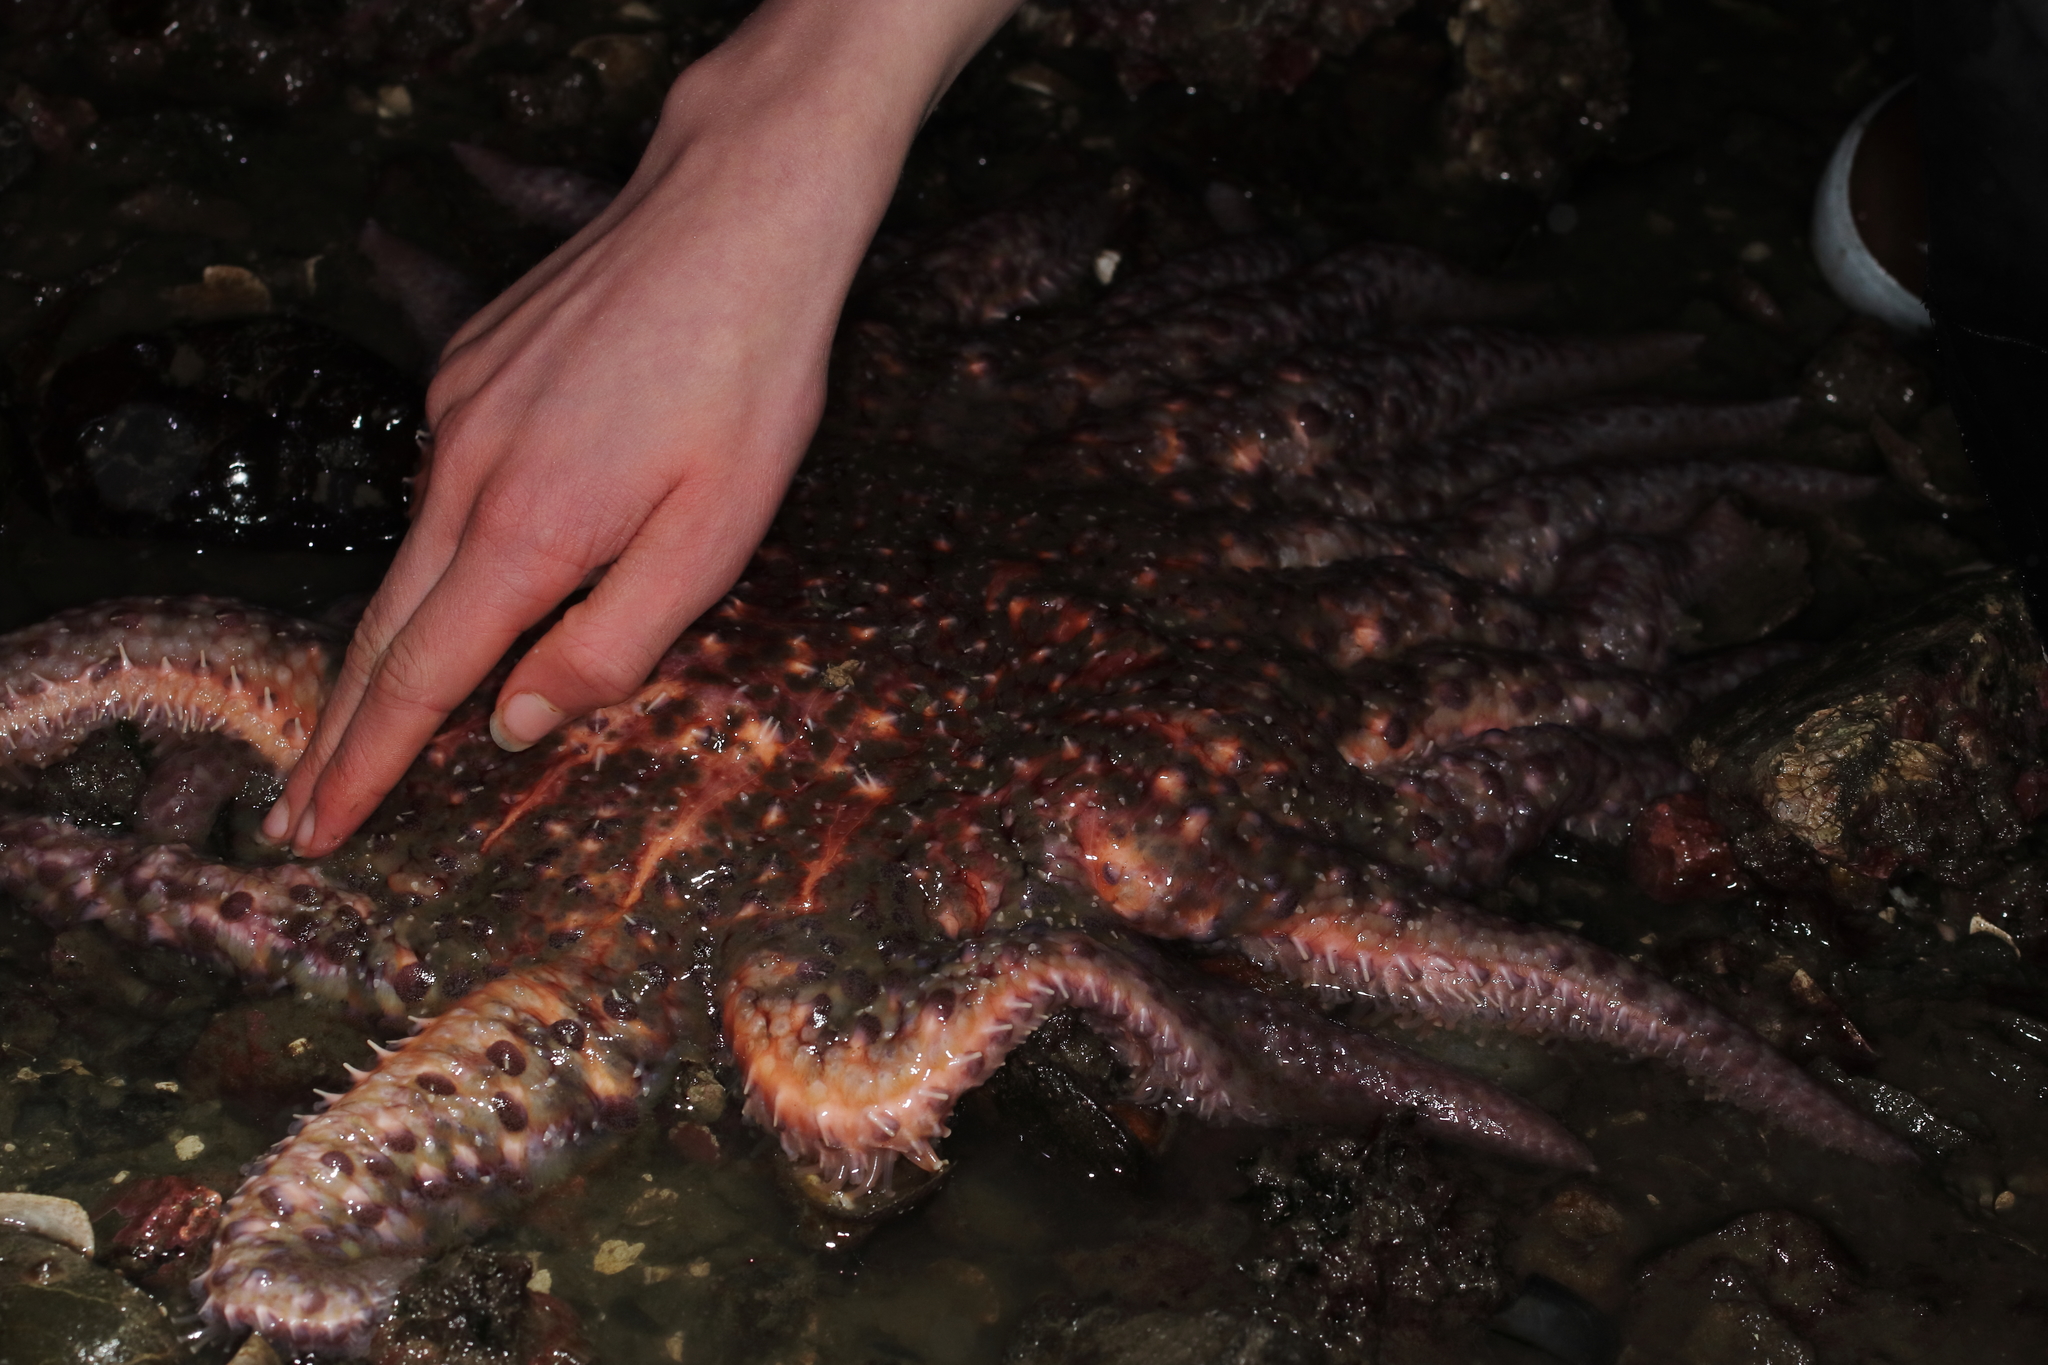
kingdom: Animalia
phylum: Echinodermata
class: Asteroidea
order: Forcipulatida
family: Asteriidae
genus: Pycnopodia
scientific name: Pycnopodia helianthoides
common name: Rag mop
